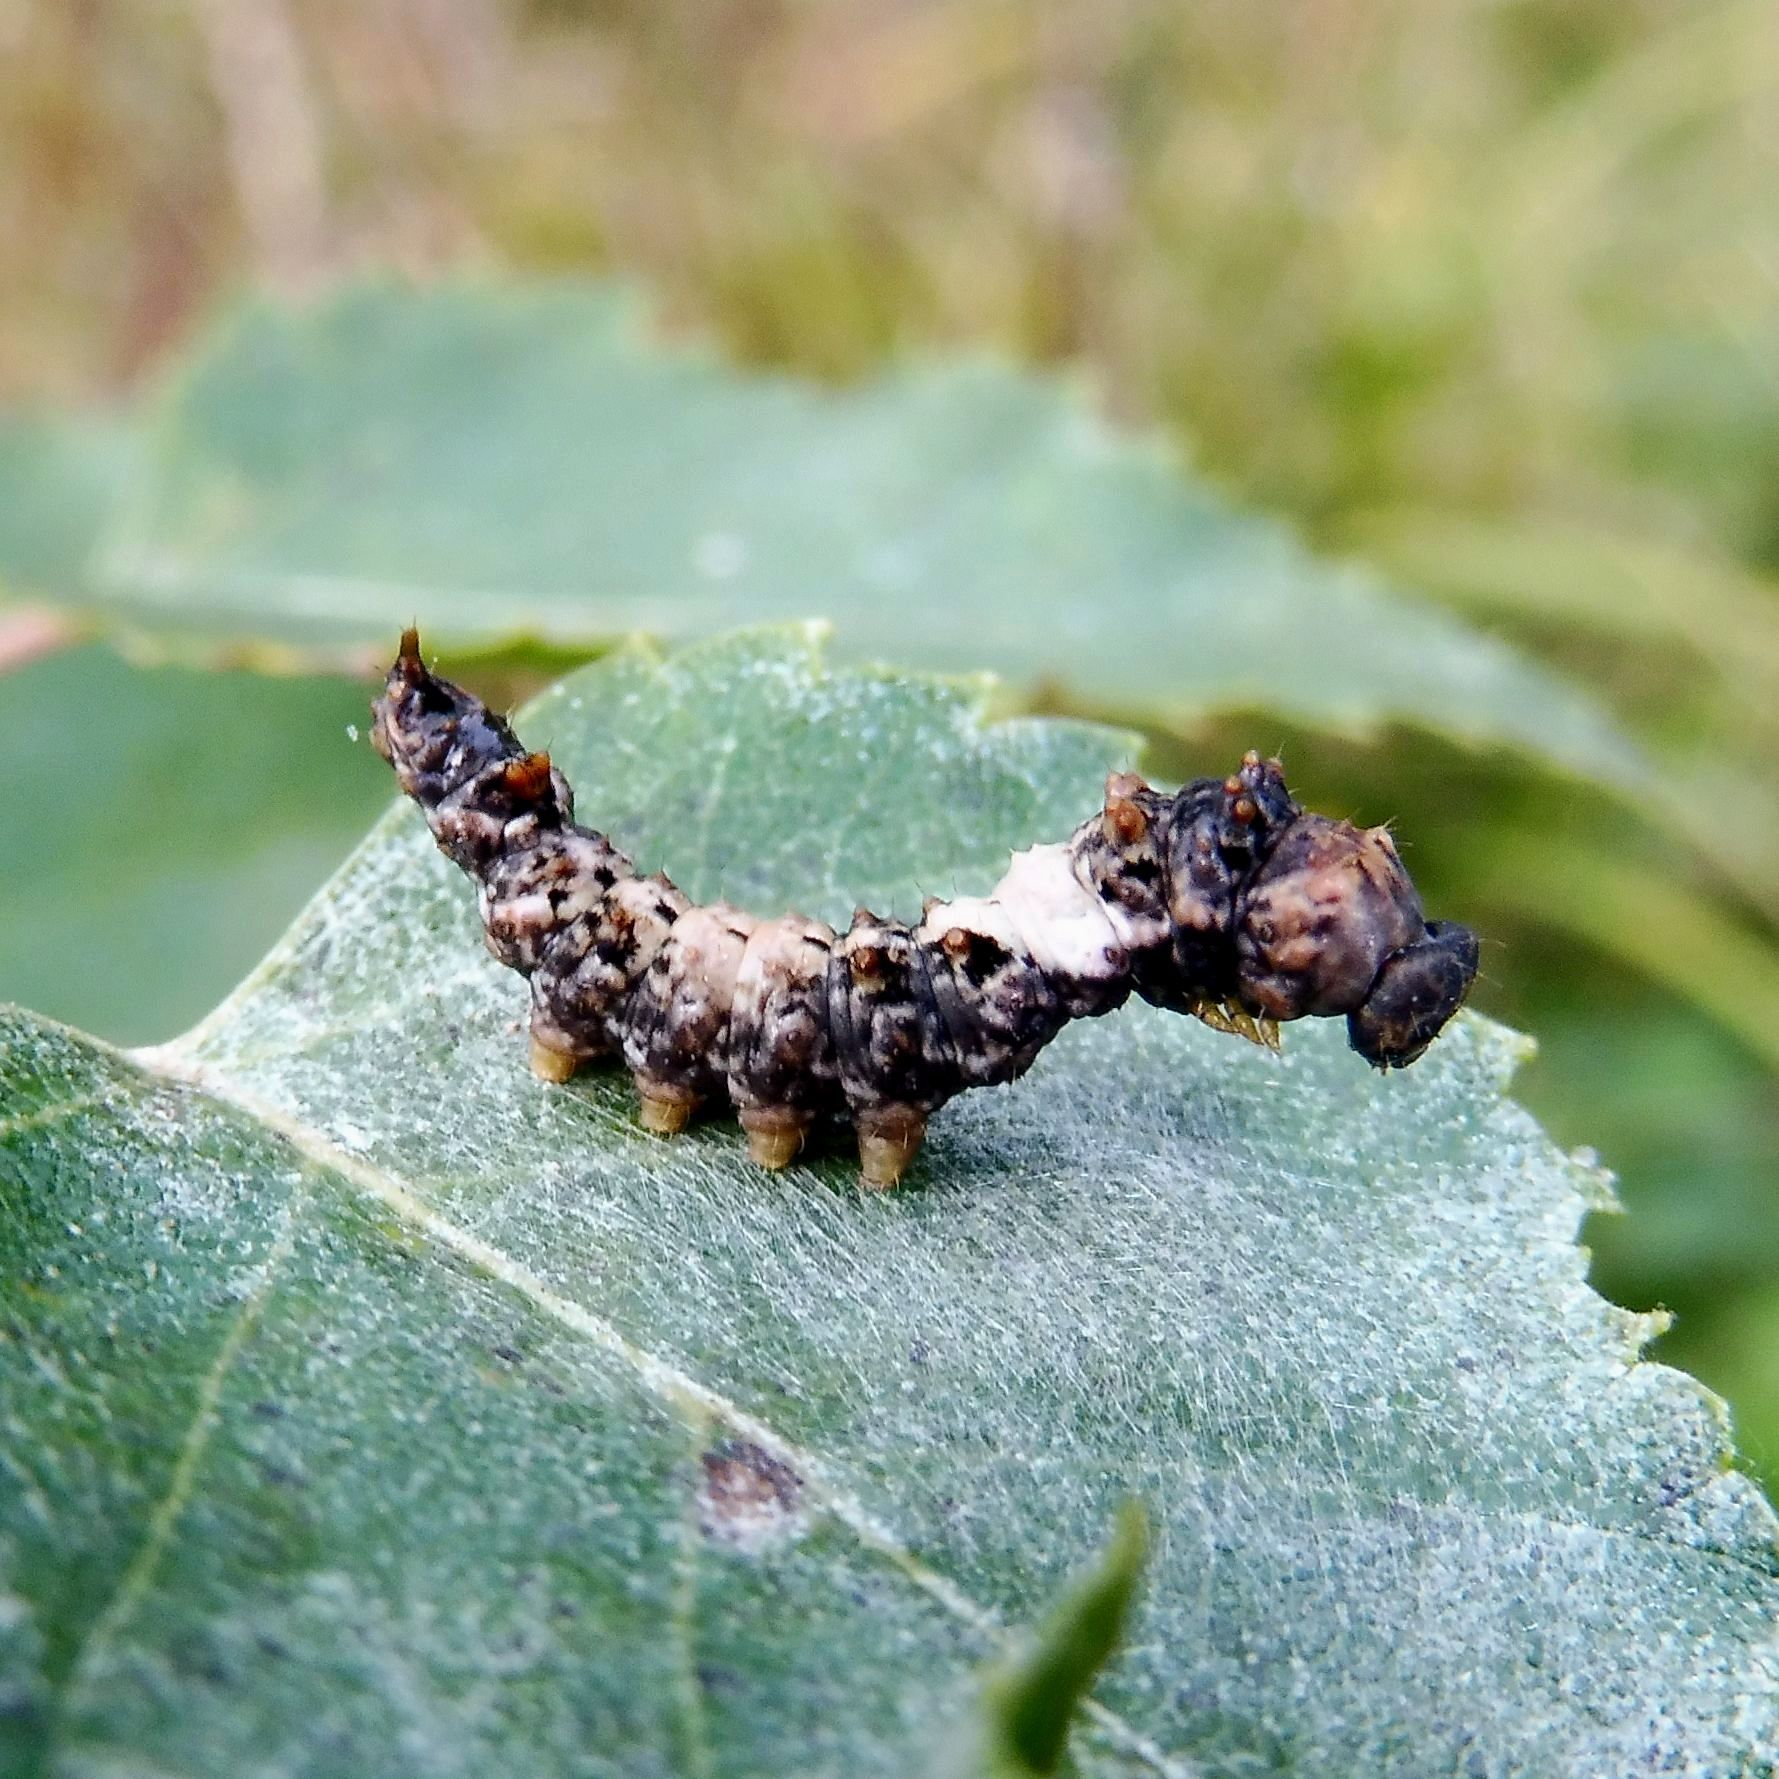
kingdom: Animalia
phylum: Arthropoda
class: Insecta
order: Lepidoptera
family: Drepanidae
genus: Falcaria
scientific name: Falcaria lacertinaria
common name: Scalloped hook-tip
